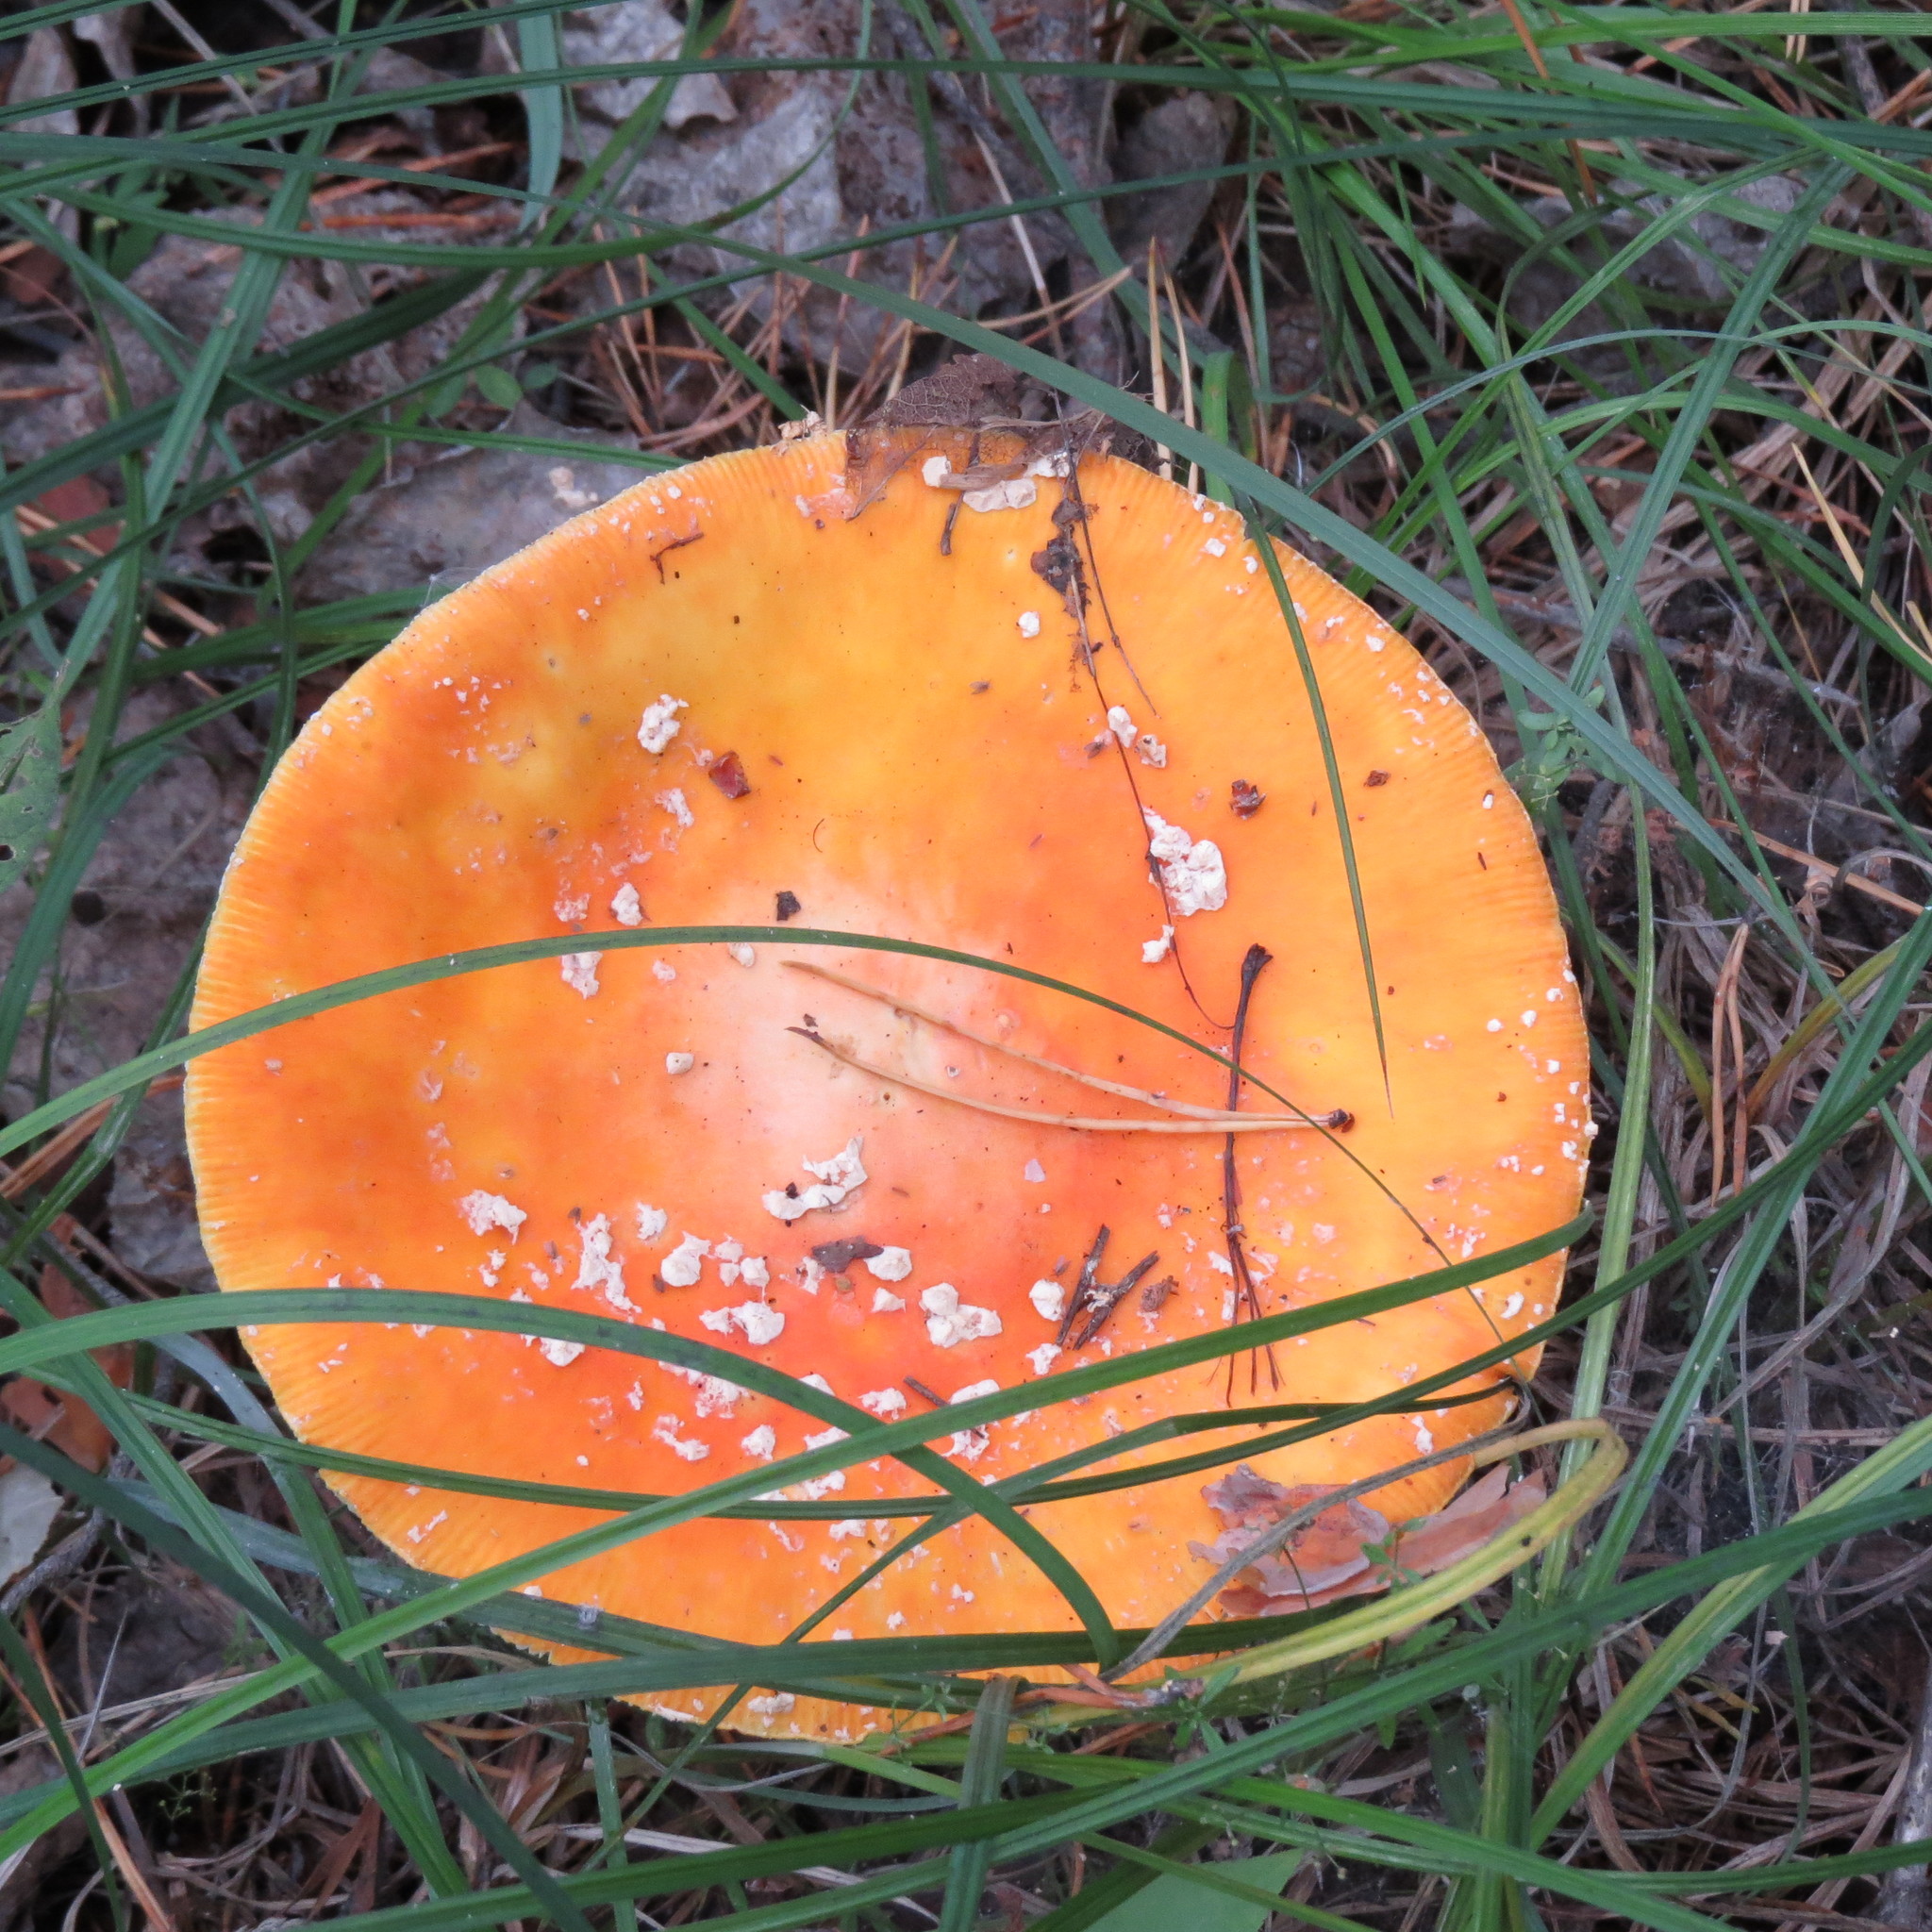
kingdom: Fungi
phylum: Basidiomycota
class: Agaricomycetes
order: Agaricales
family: Amanitaceae
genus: Amanita
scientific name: Amanita muscaria
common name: Fly agaric
